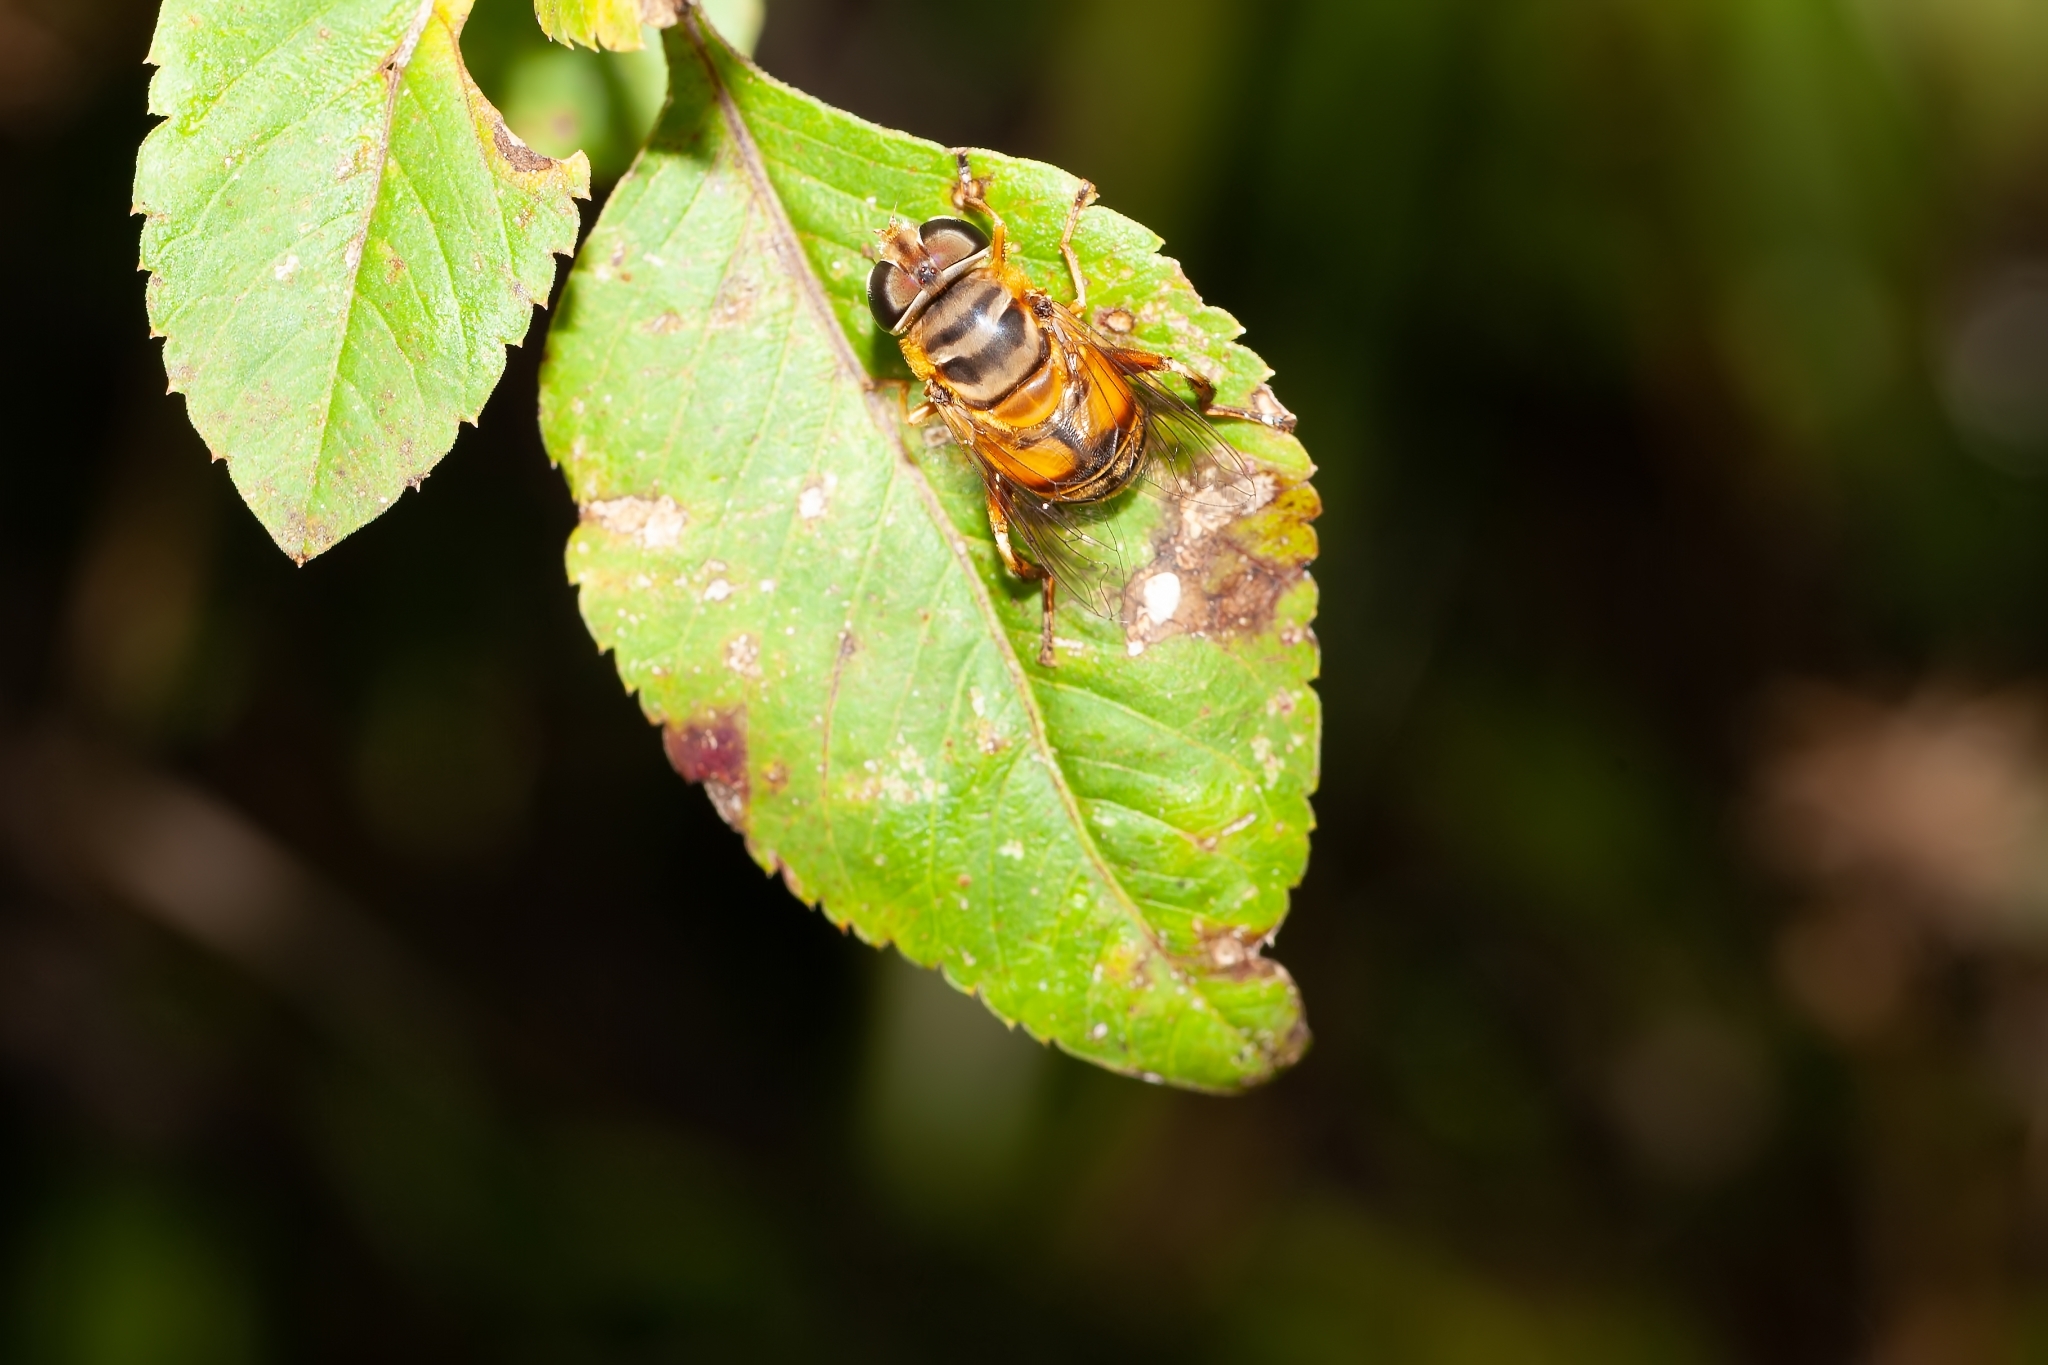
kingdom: Animalia
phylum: Arthropoda
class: Insecta
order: Diptera
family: Syrphidae
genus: Palpada
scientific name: Palpada vinetorum
